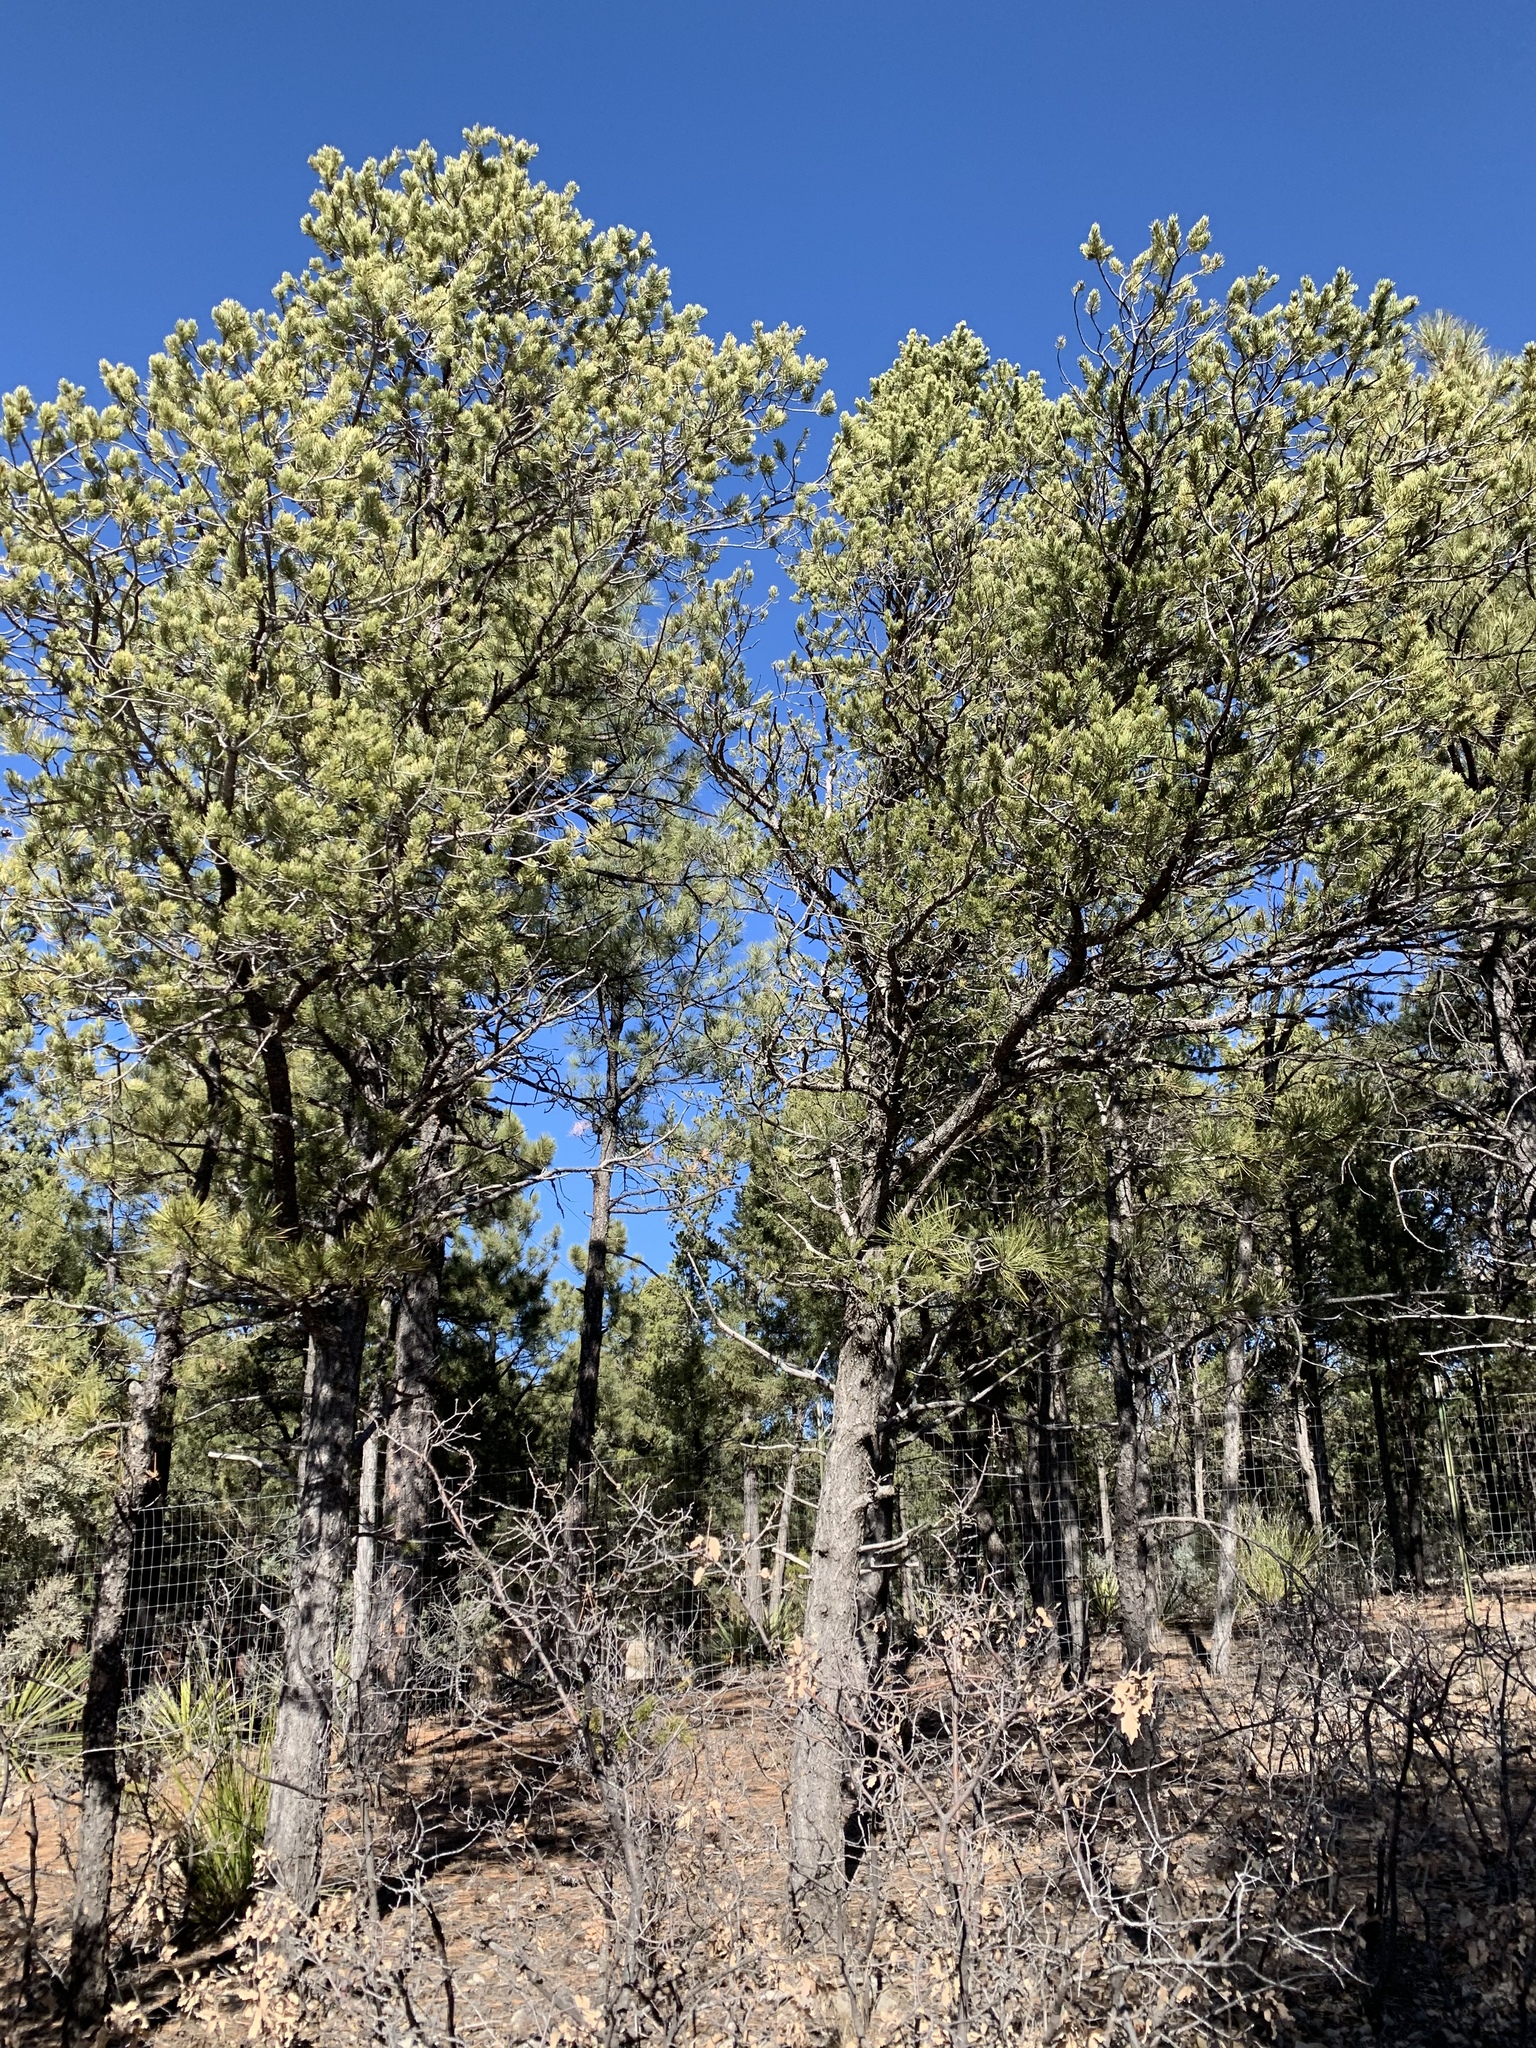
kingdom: Plantae
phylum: Tracheophyta
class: Pinopsida
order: Pinales
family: Pinaceae
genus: Pinus
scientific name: Pinus edulis
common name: Colorado pinyon
